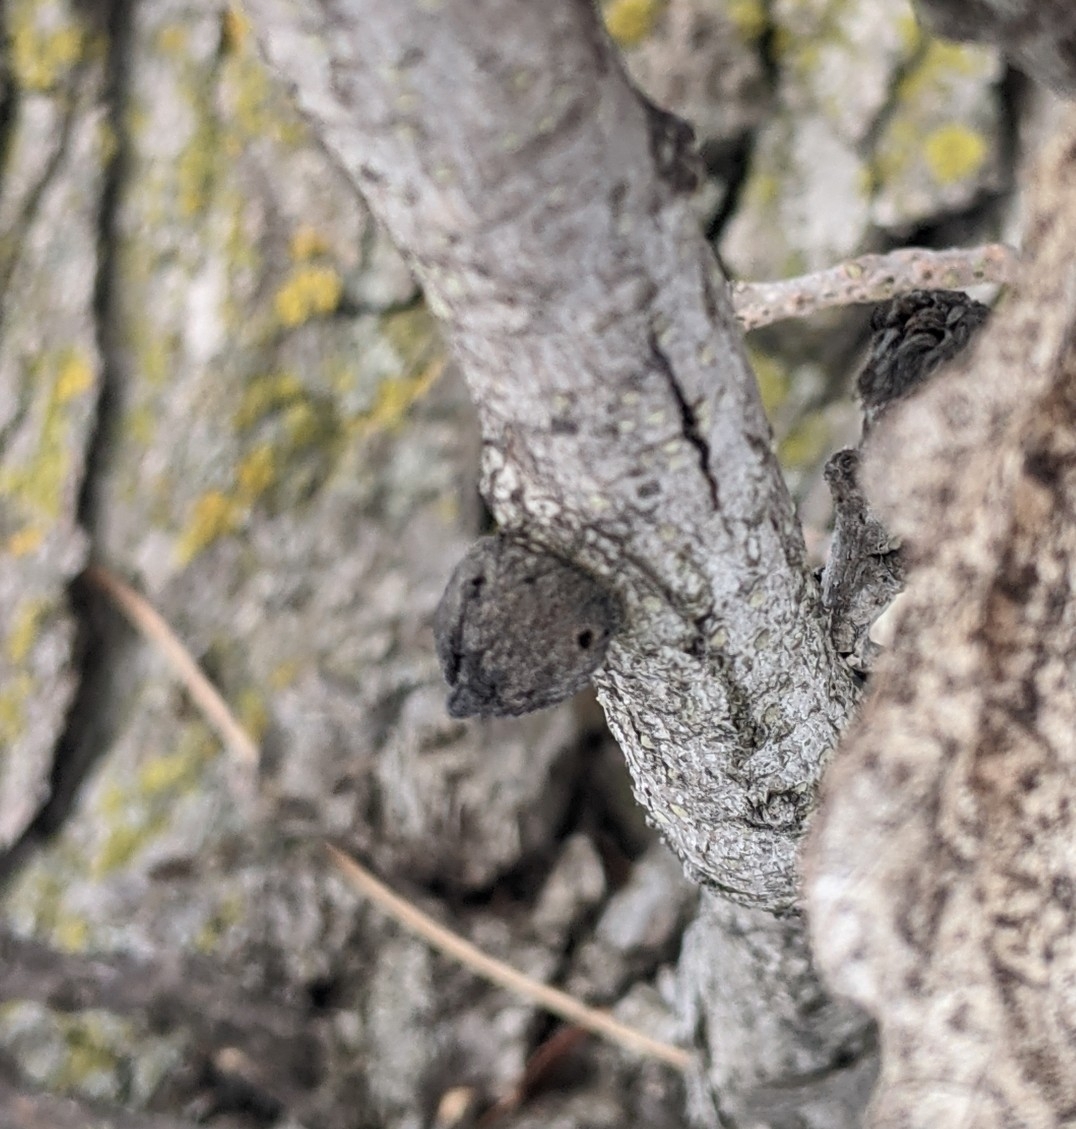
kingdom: Animalia
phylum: Arthropoda
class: Insecta
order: Hymenoptera
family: Cynipidae
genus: Disholcaspis
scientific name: Disholcaspis
